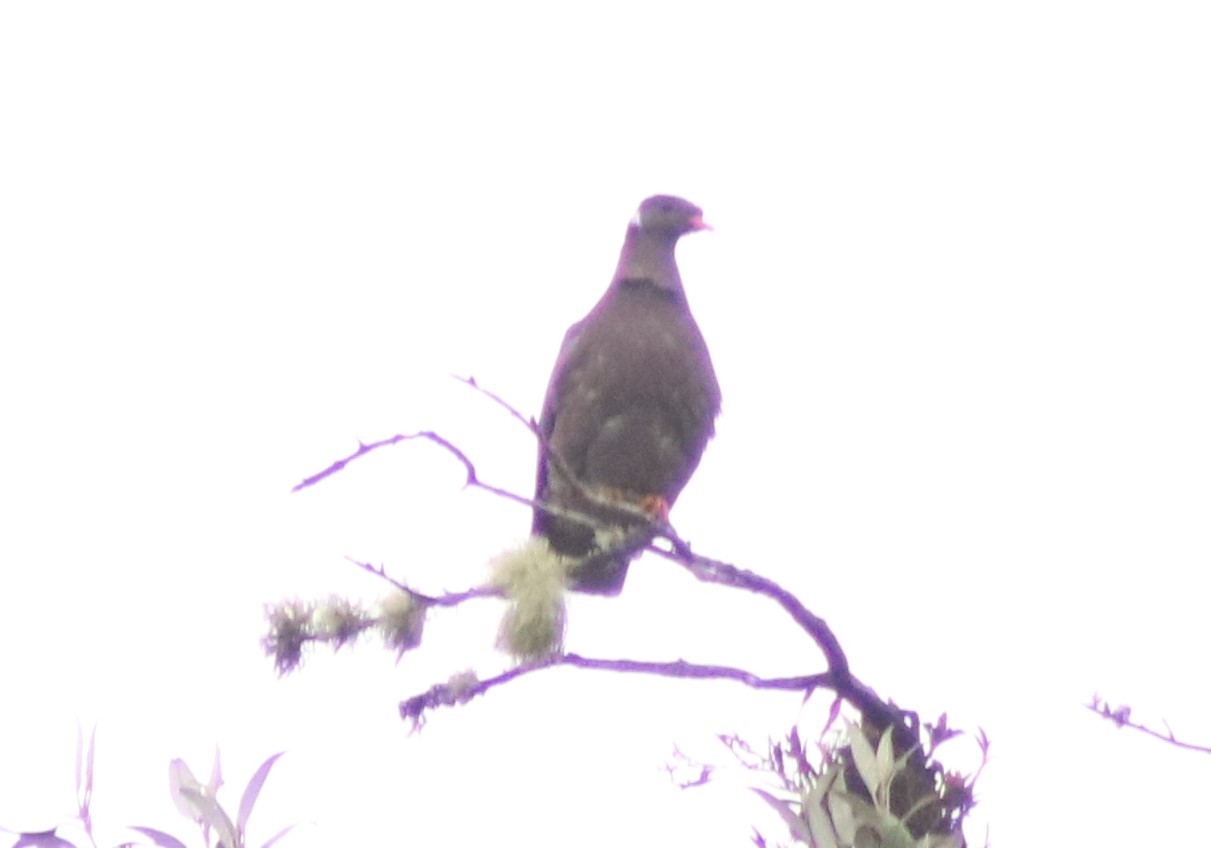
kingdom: Animalia
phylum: Chordata
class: Aves
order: Columbiformes
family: Columbidae
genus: Patagioenas
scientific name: Patagioenas fasciata
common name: Band-tailed pigeon
